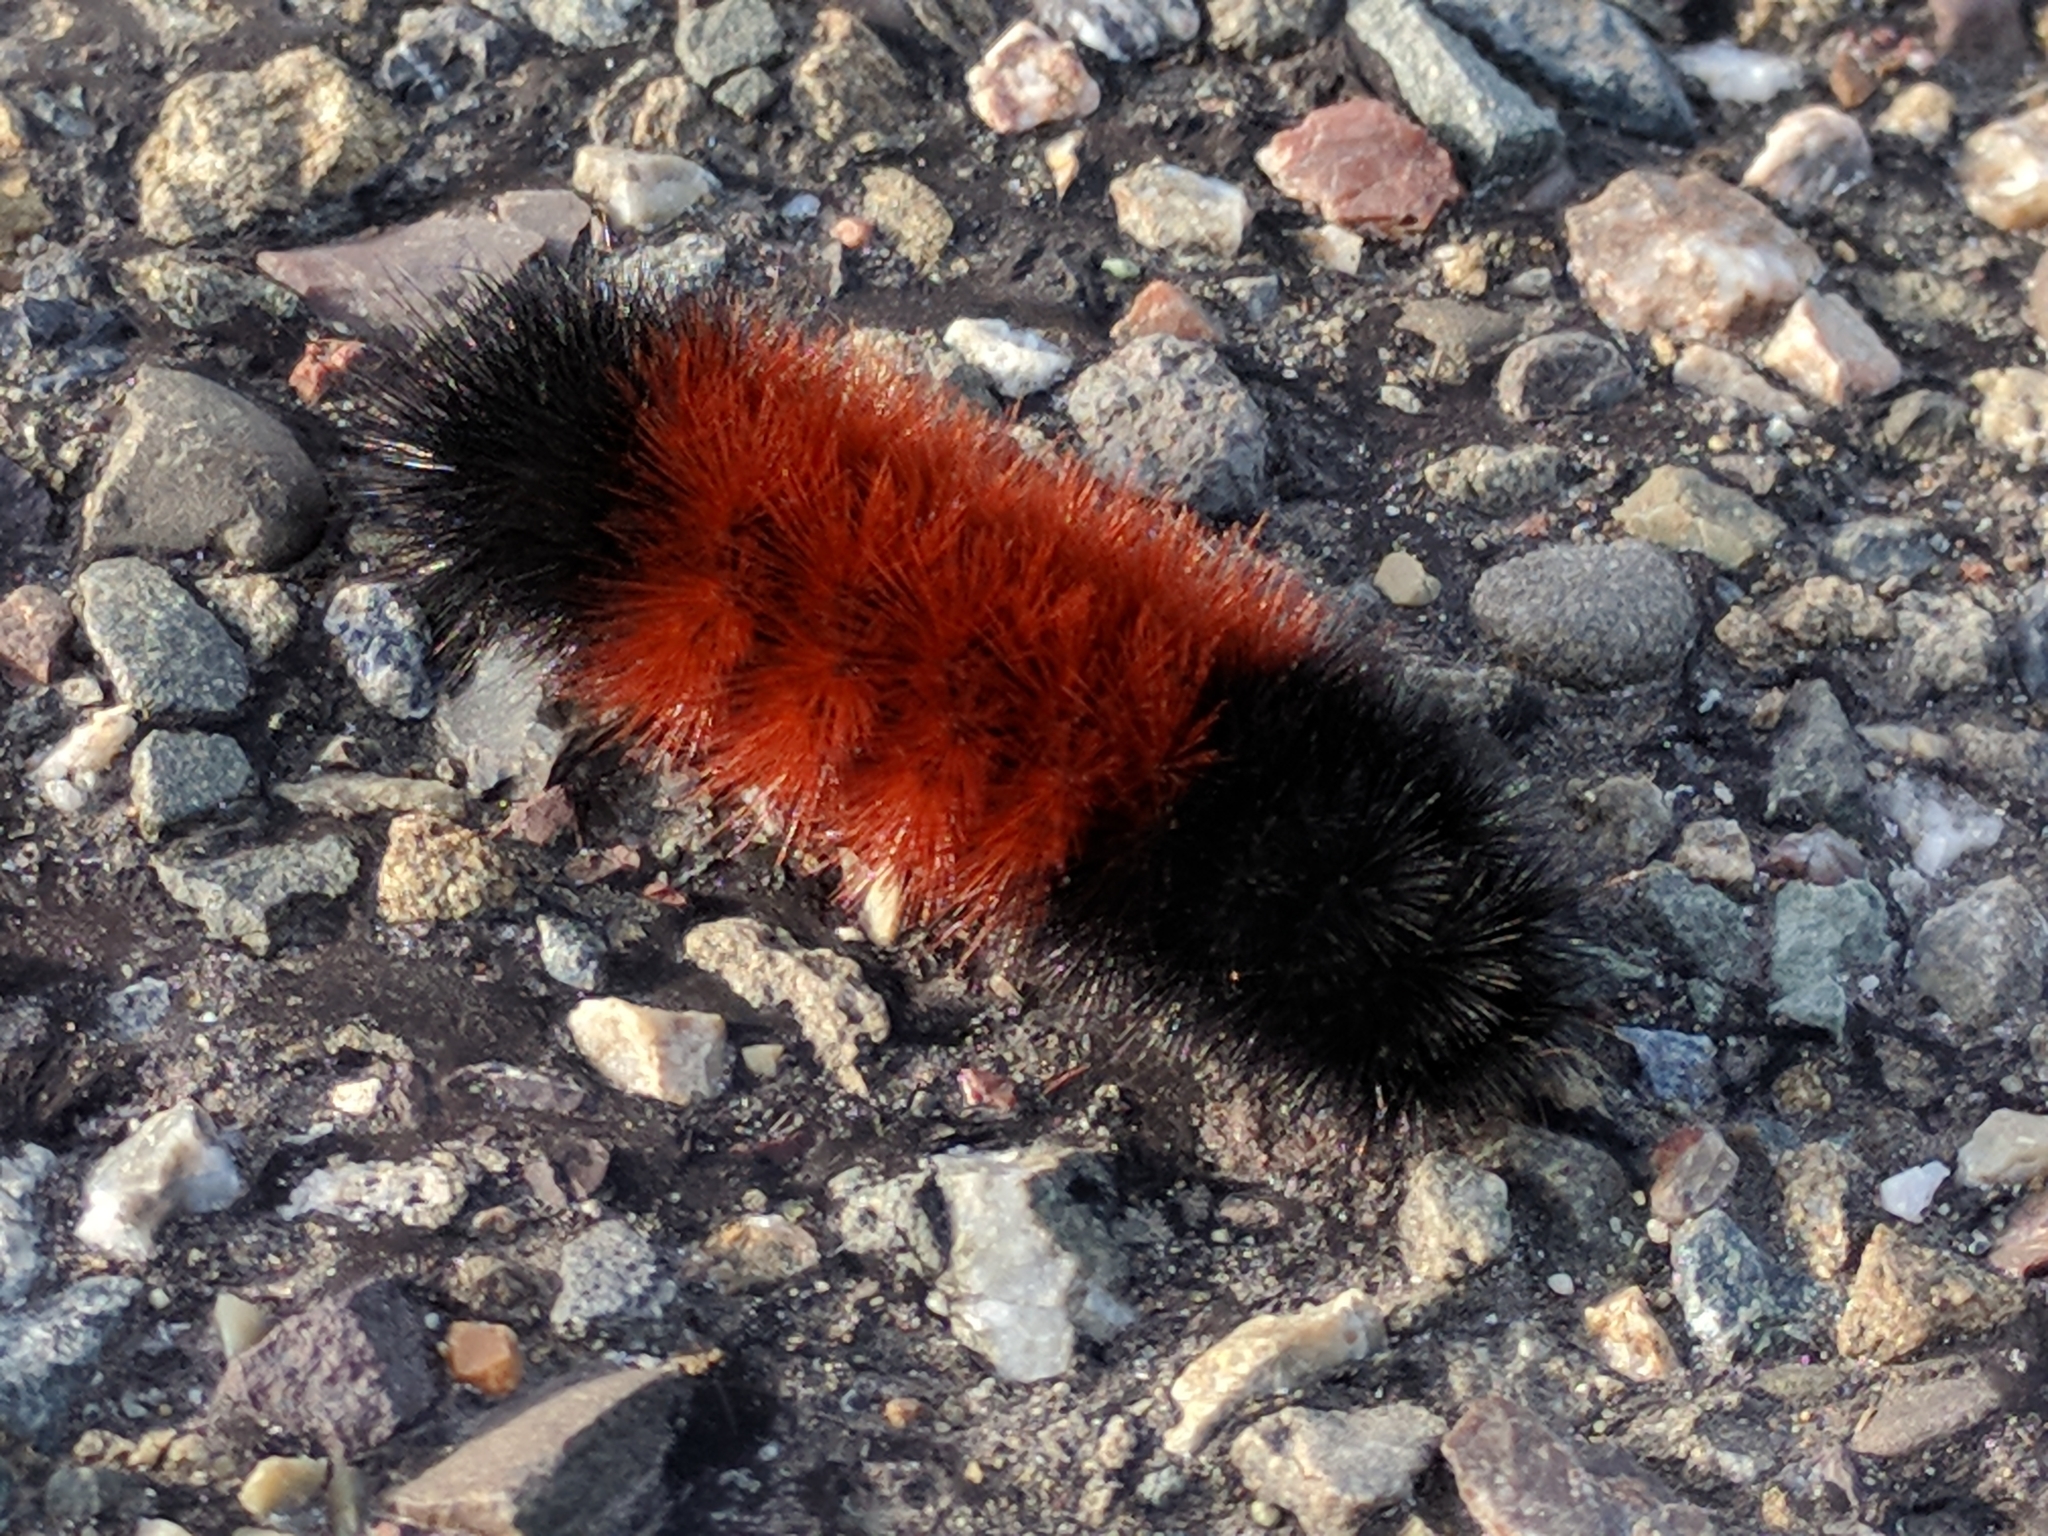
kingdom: Animalia
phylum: Arthropoda
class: Insecta
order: Lepidoptera
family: Erebidae
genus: Pyrrharctia
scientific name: Pyrrharctia isabella
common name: Isabella tiger moth
